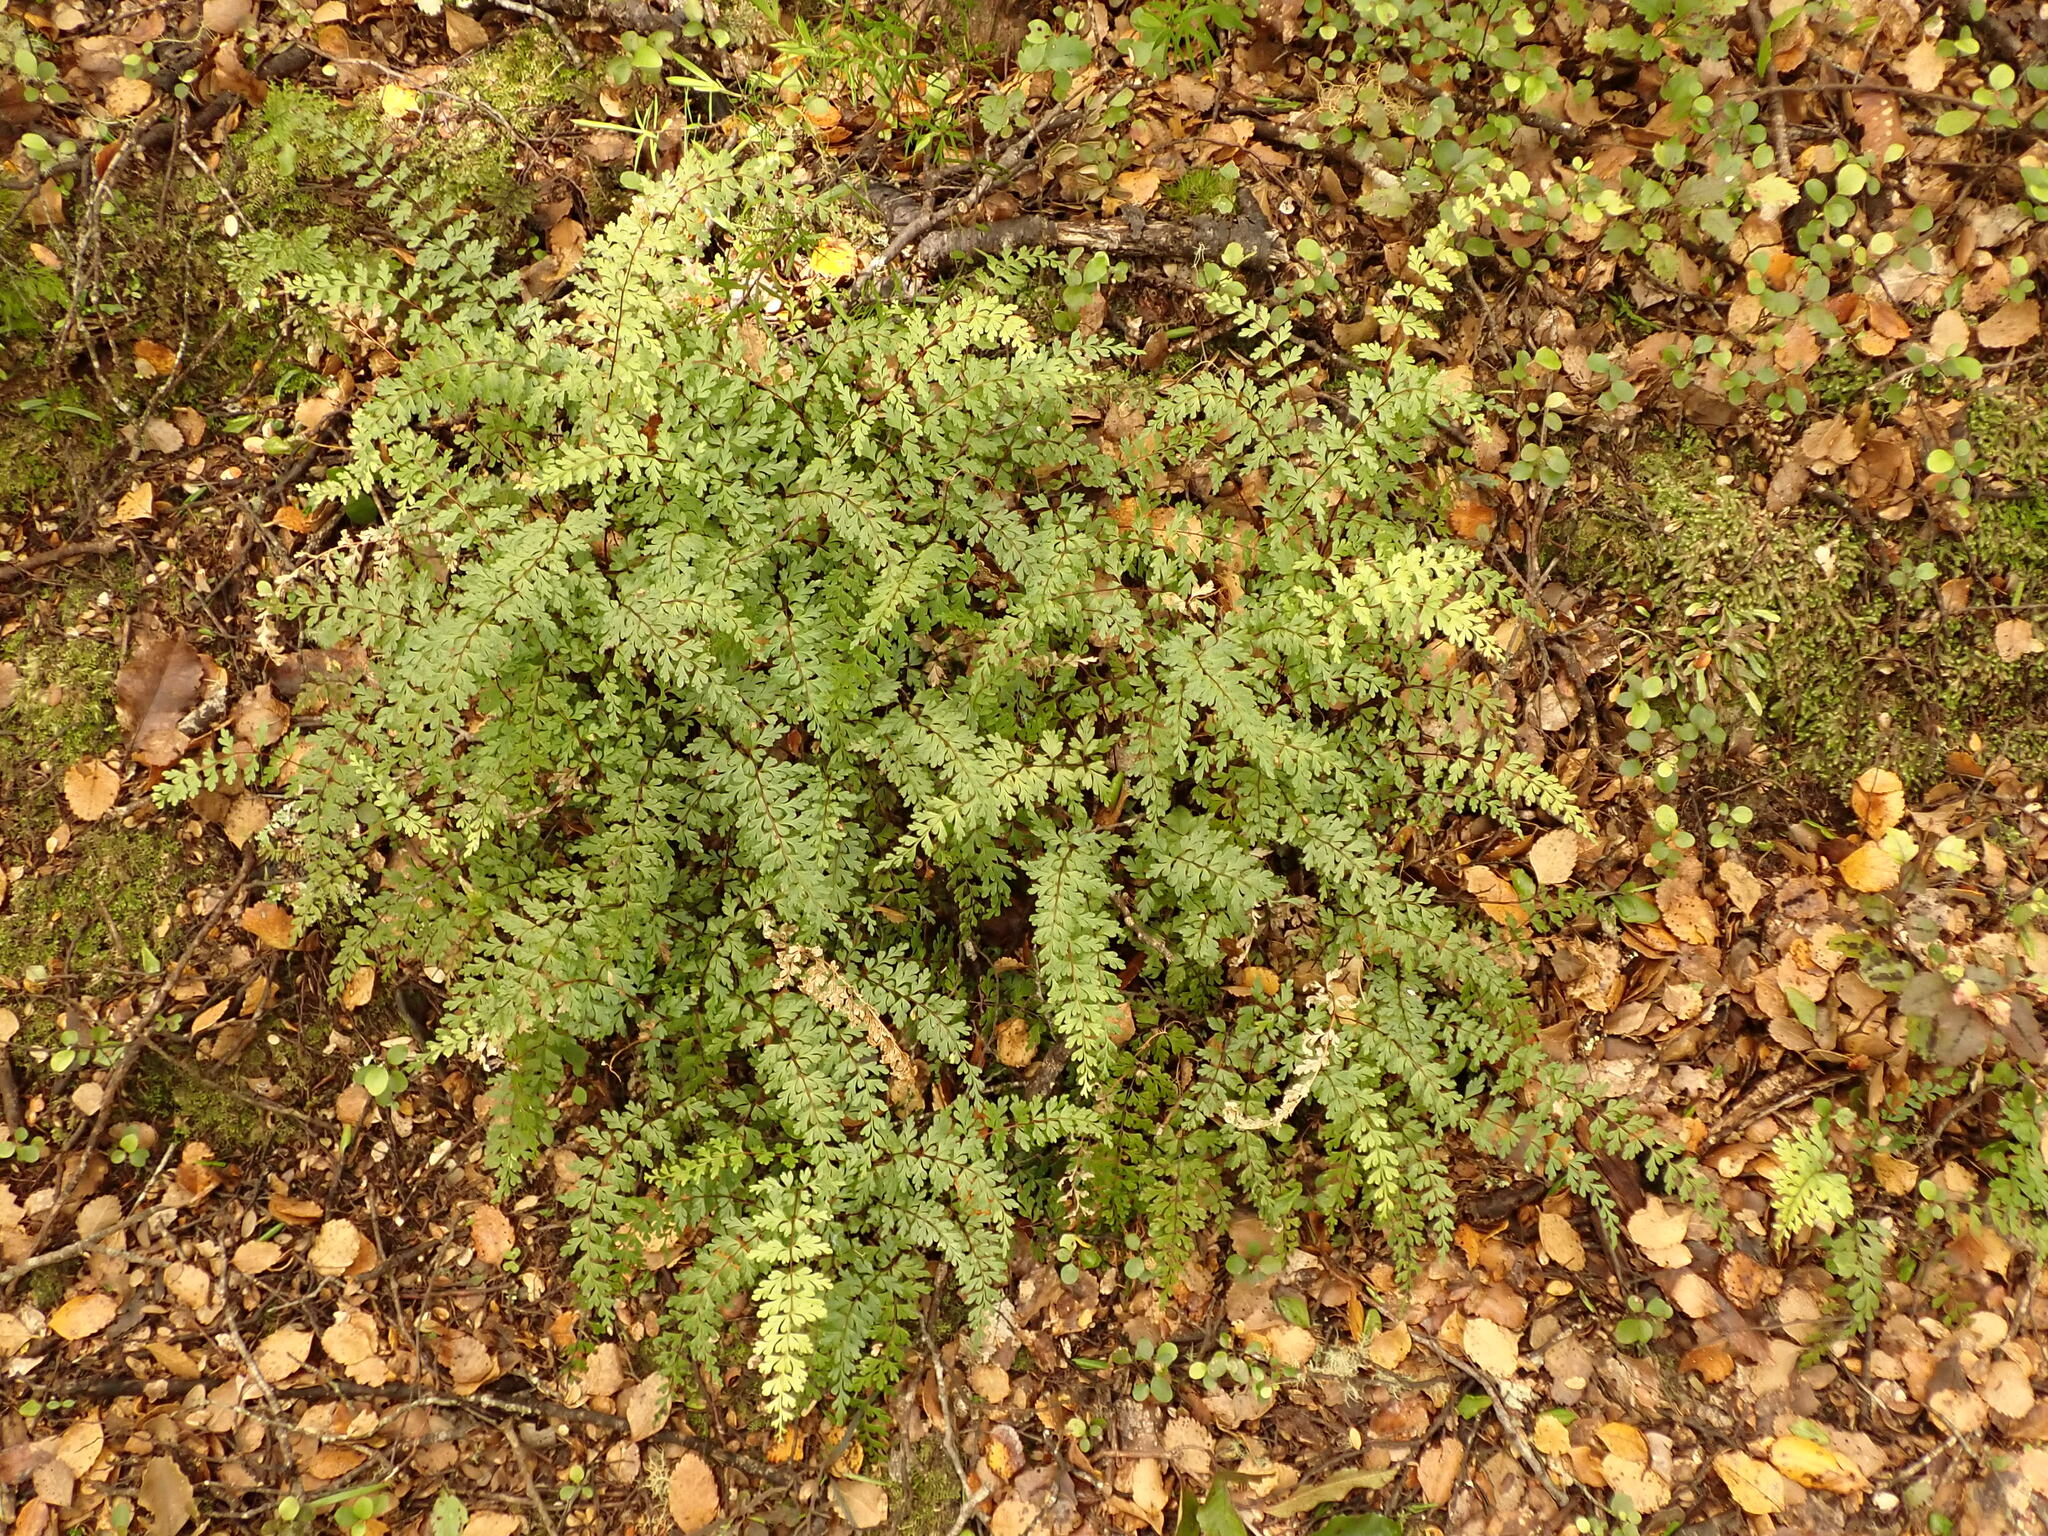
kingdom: Plantae
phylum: Tracheophyta
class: Polypodiopsida
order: Polypodiales
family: Lindsaeaceae
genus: Lindsaea
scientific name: Lindsaea trichomanoides
